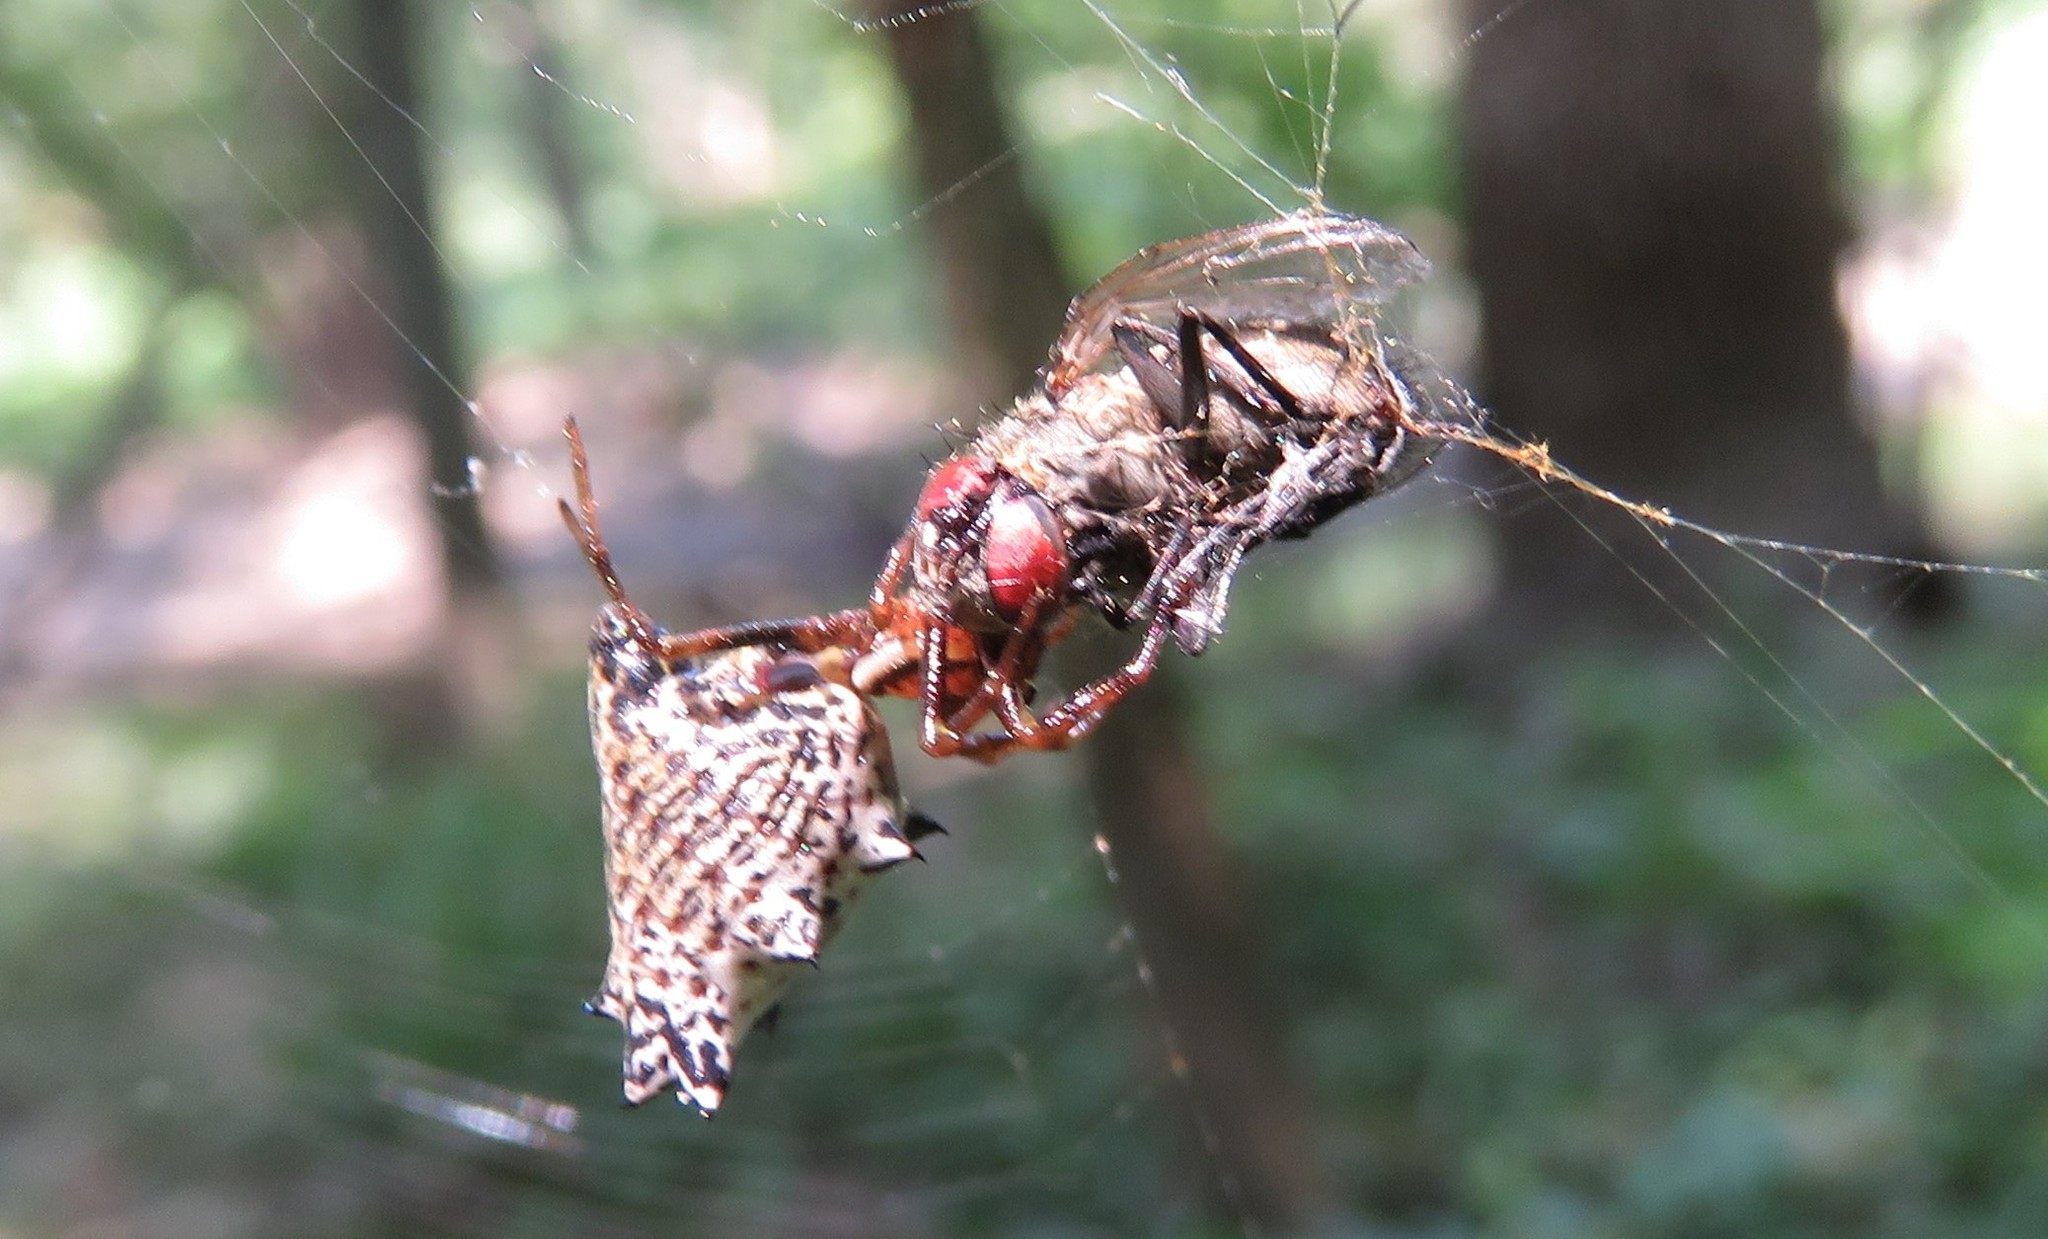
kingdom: Animalia
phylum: Arthropoda
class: Arachnida
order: Araneae
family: Araneidae
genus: Micrathena
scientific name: Micrathena gracilis
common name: Orb weavers
